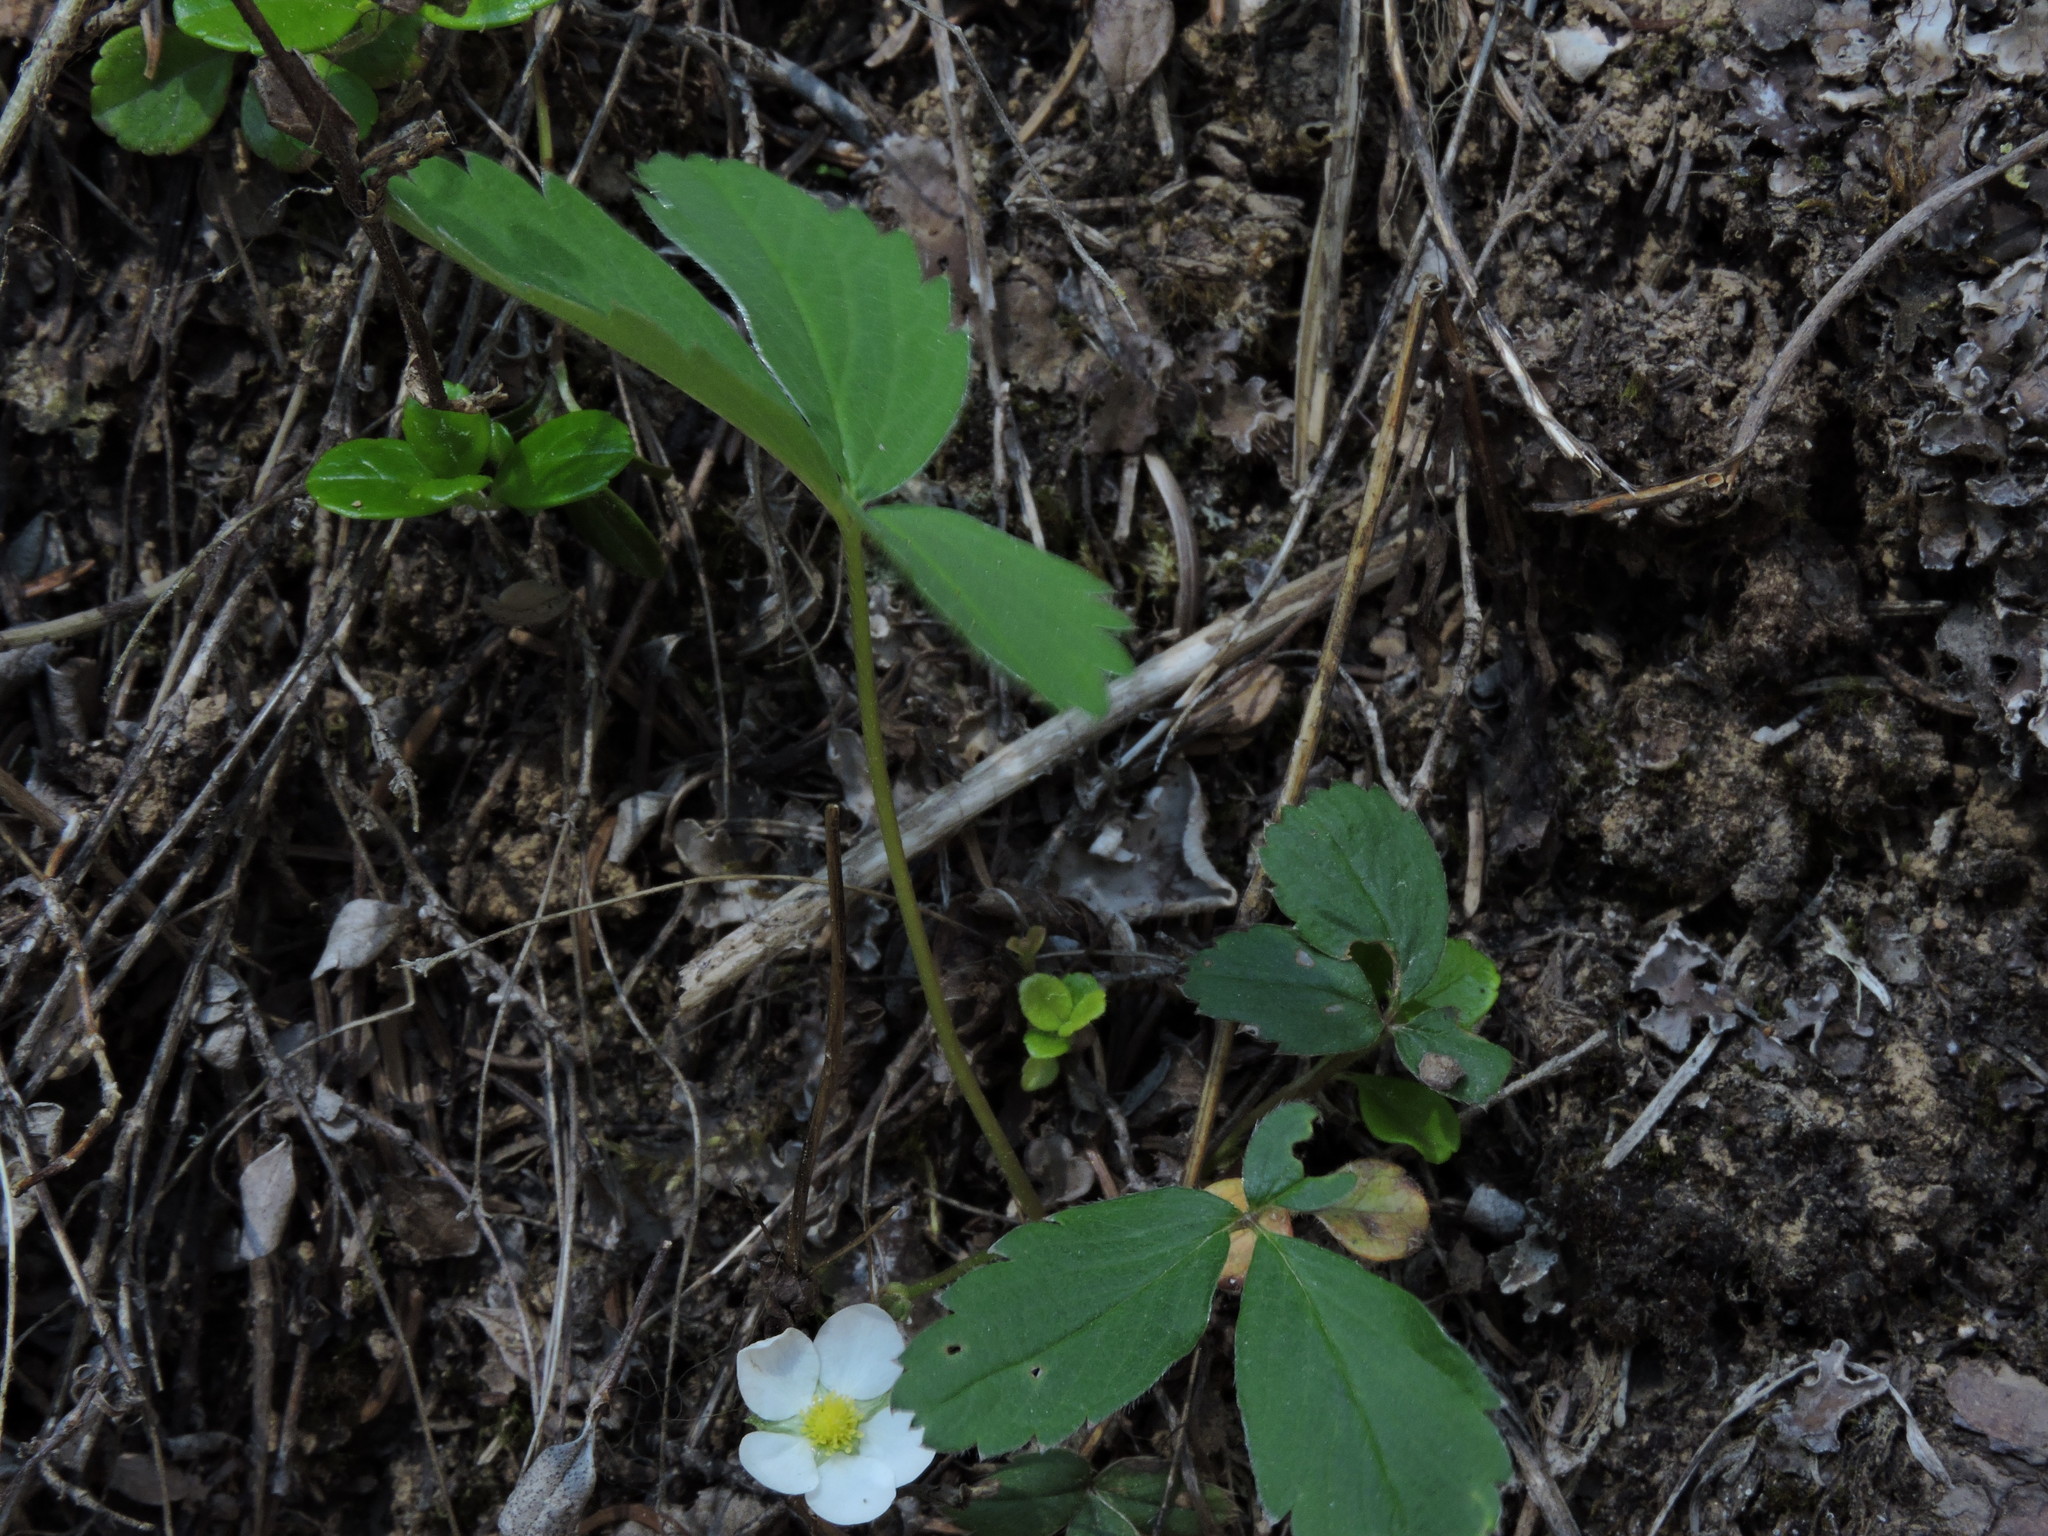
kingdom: Plantae
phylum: Tracheophyta
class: Magnoliopsida
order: Rosales
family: Rosaceae
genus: Fragaria
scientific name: Fragaria virginiana
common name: Thickleaved wild strawberry
